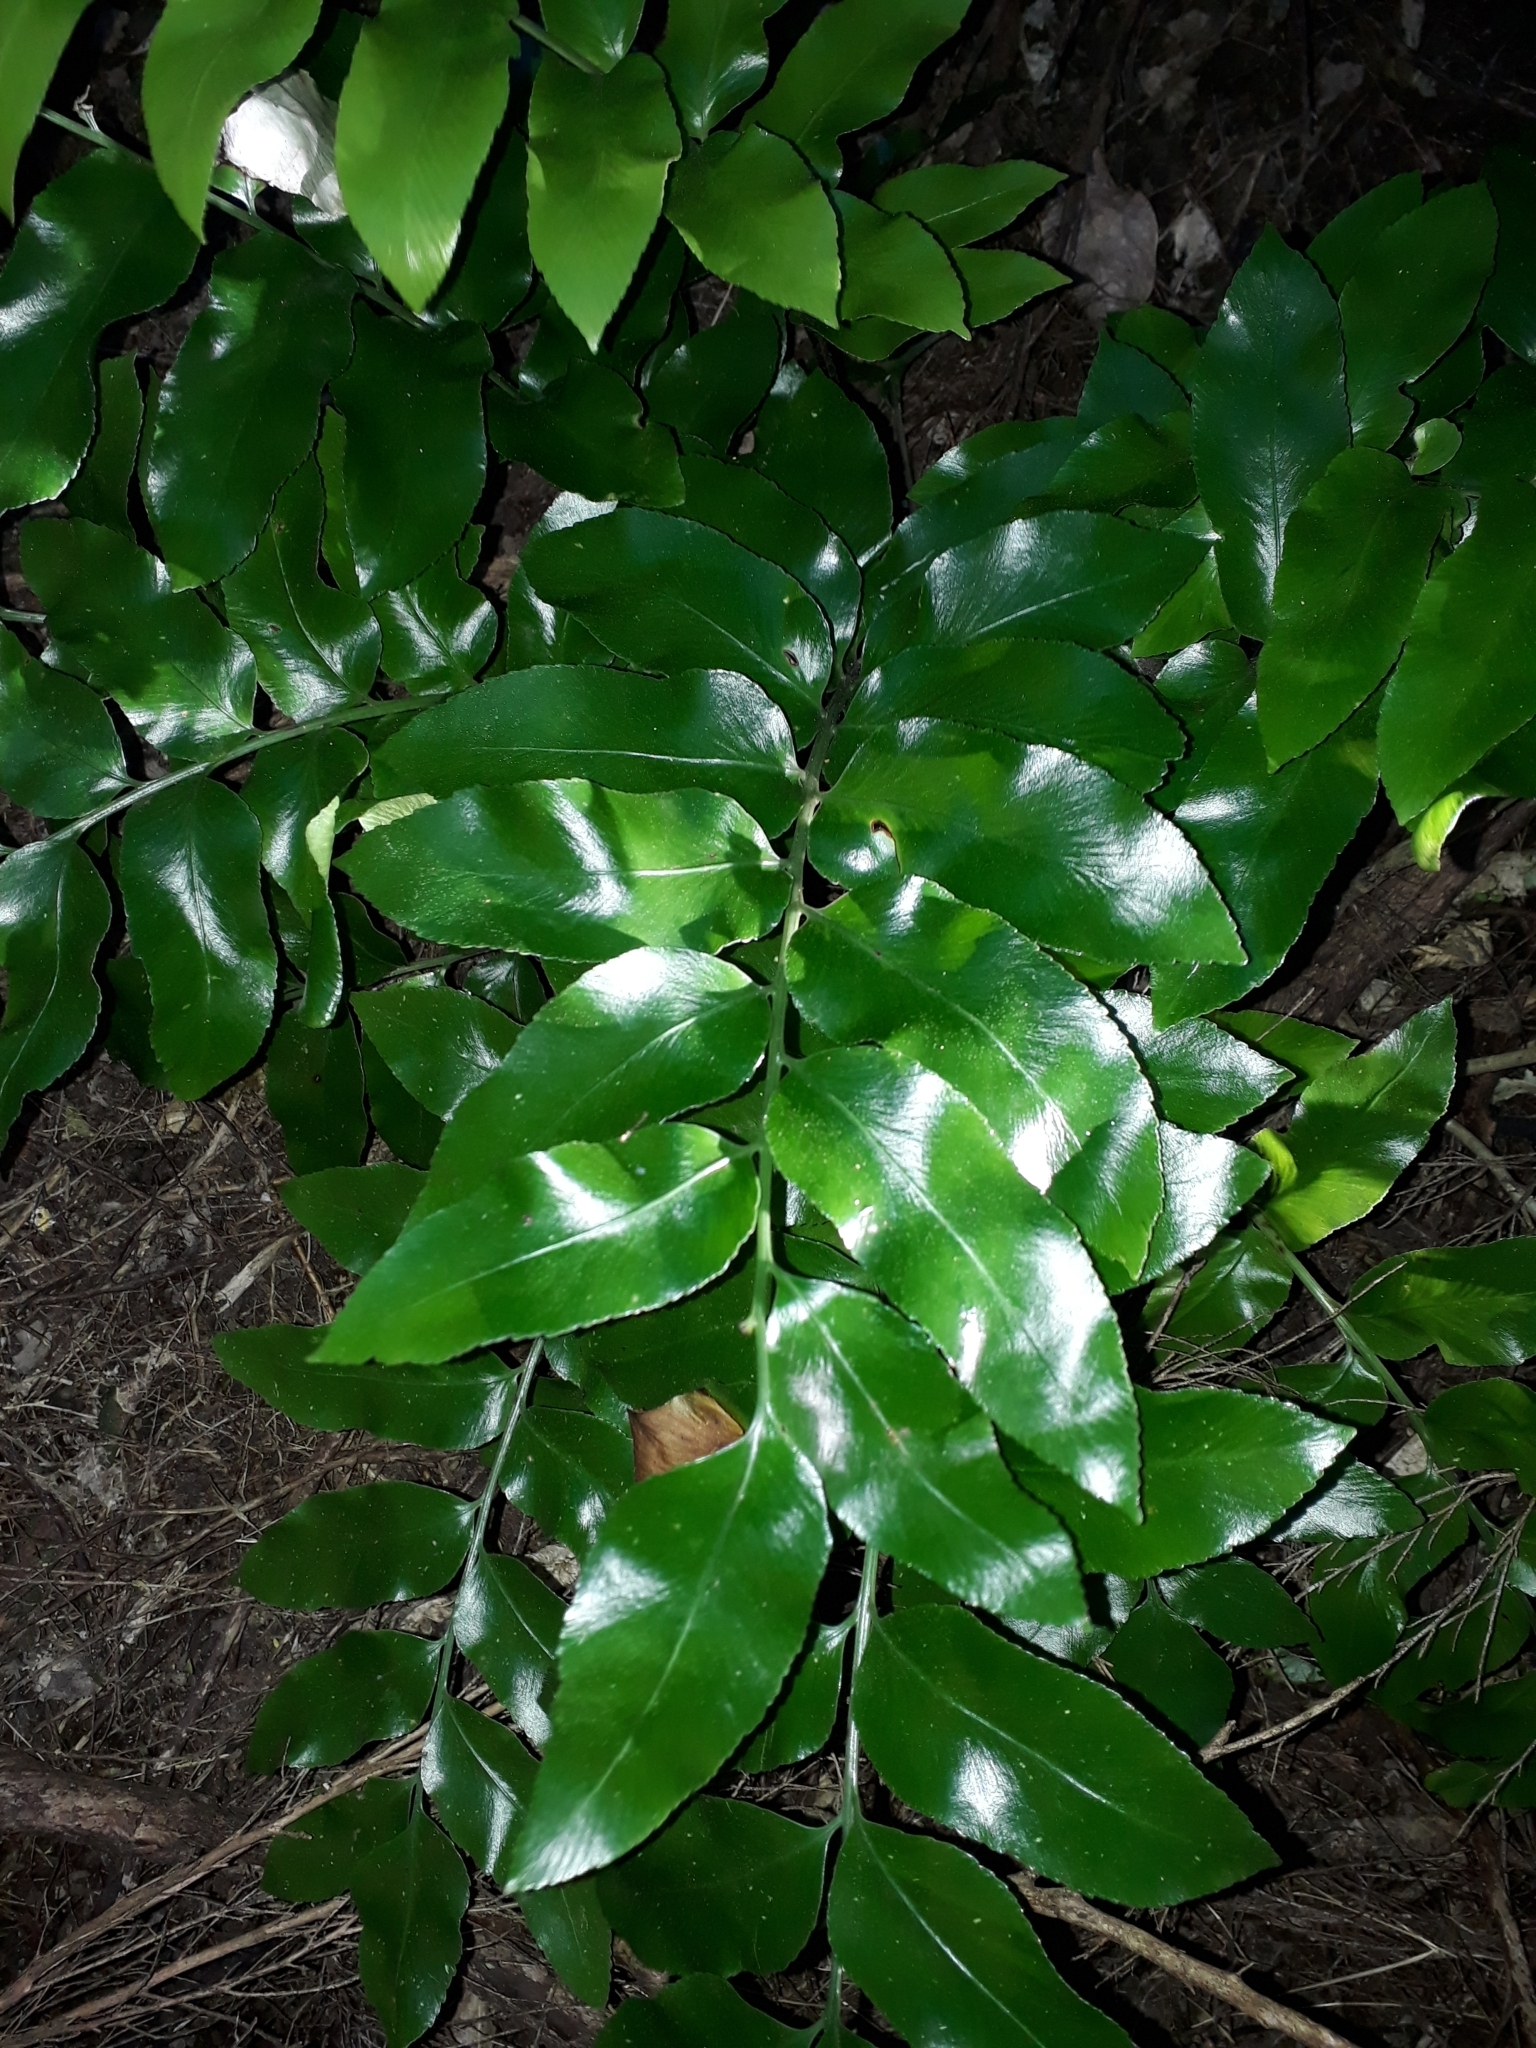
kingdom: Plantae
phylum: Tracheophyta
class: Polypodiopsida
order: Polypodiales
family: Aspleniaceae
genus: Asplenium
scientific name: Asplenium oblongifolium
